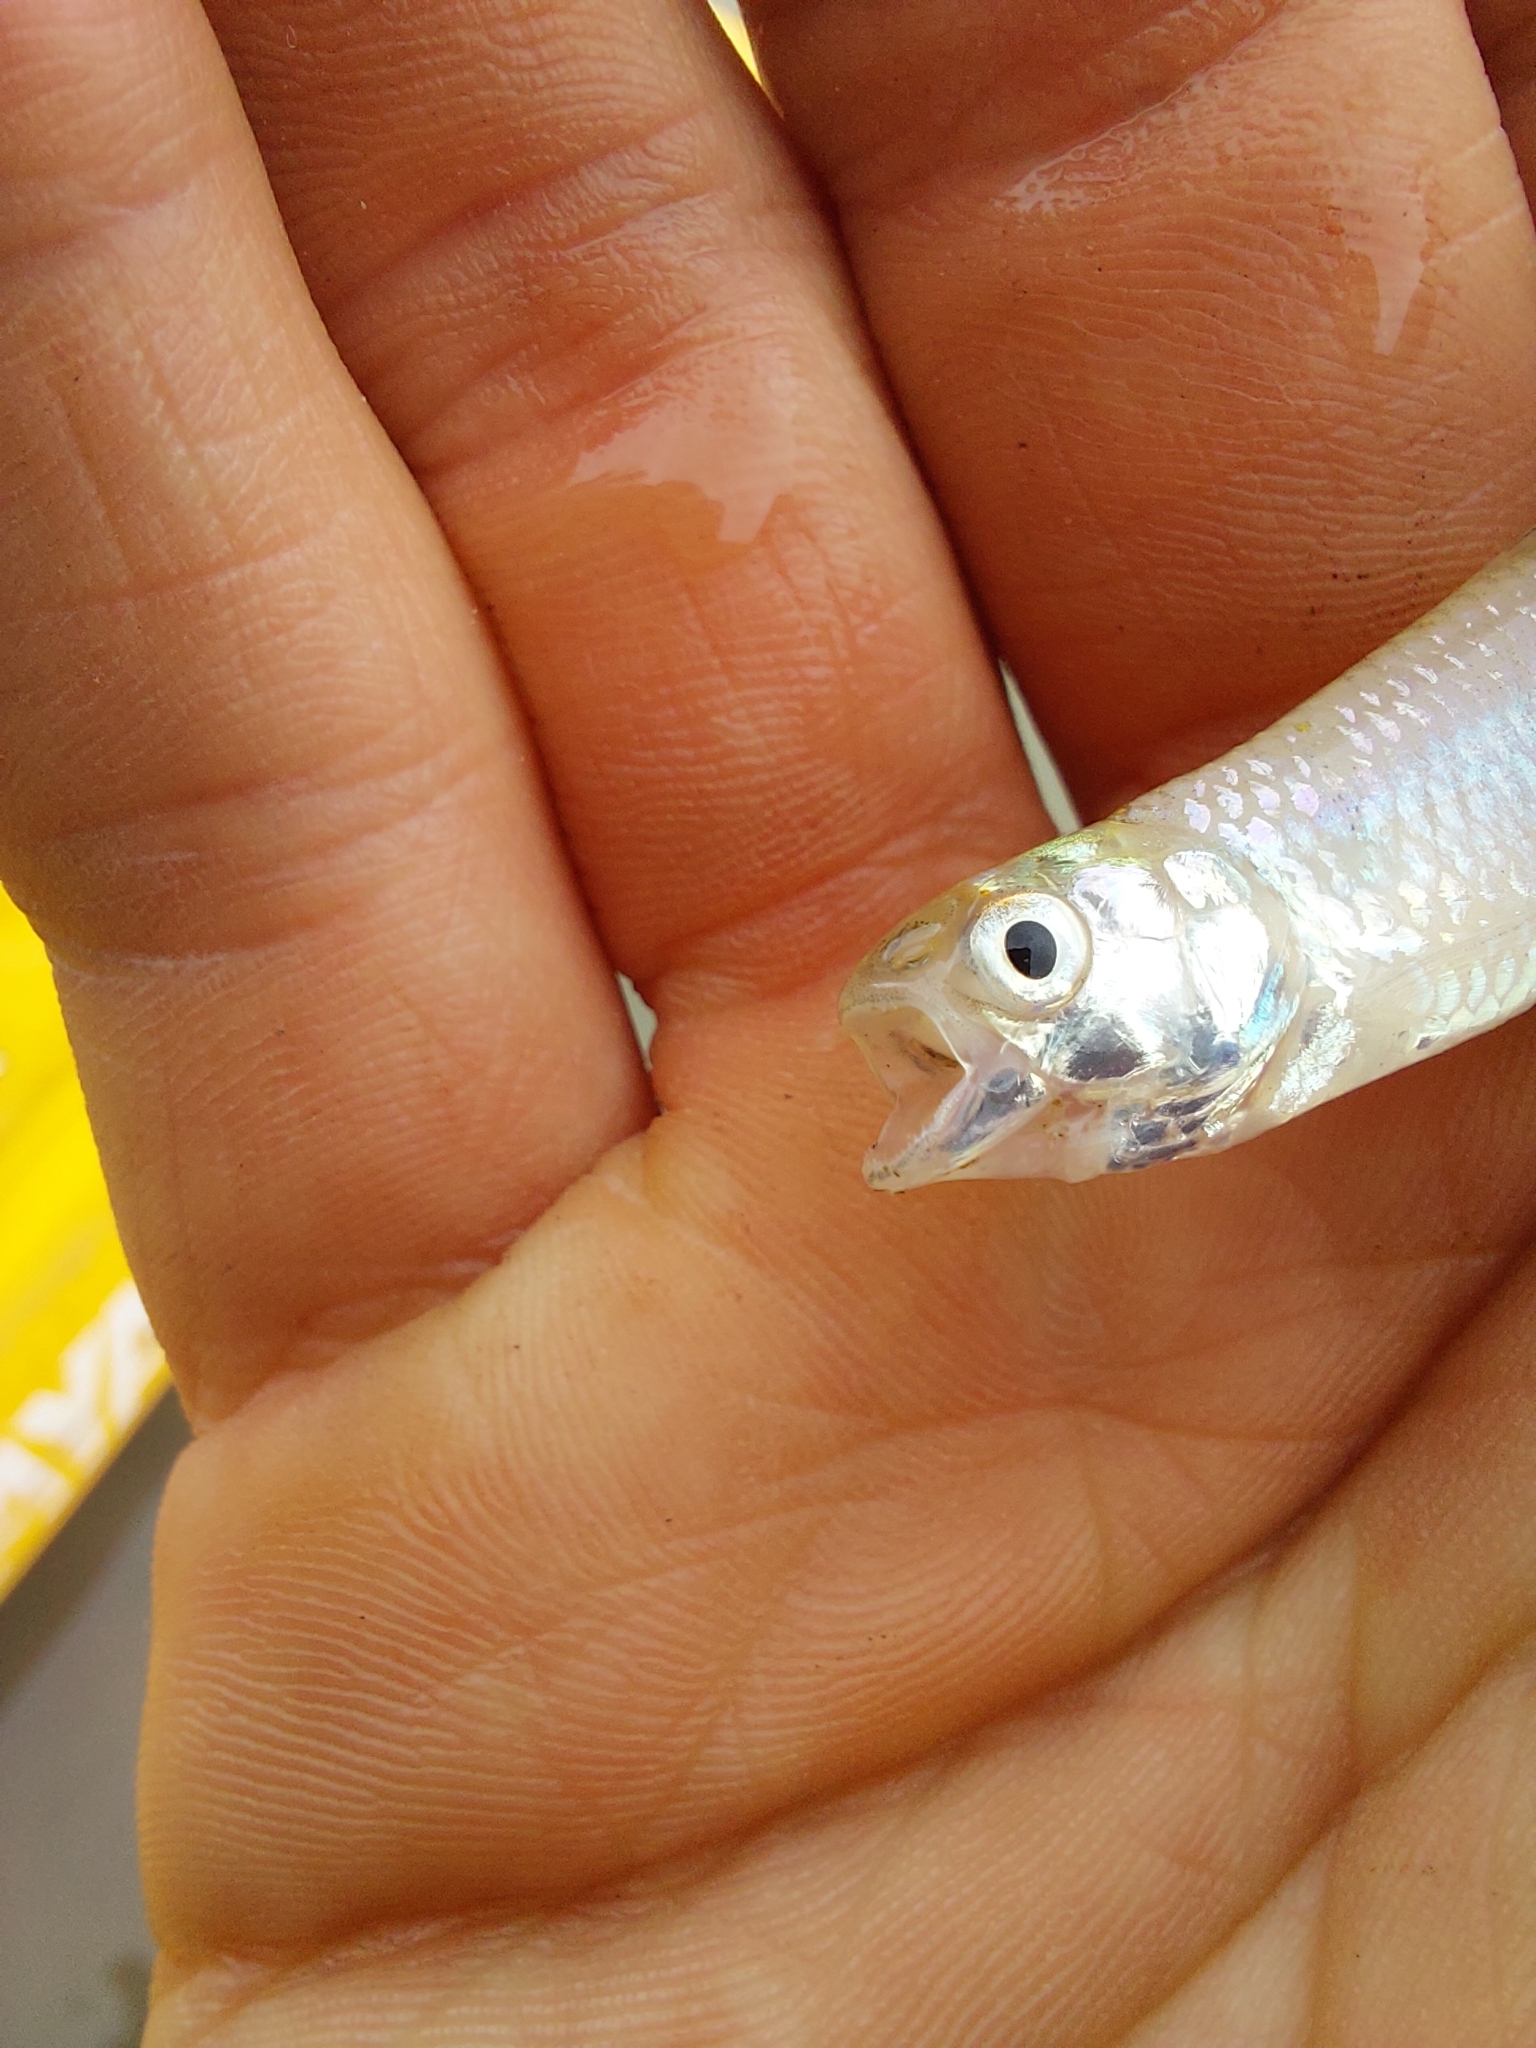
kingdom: Animalia
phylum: Chordata
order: Characiformes
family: Characidae
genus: Aphyocharax
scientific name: Aphyocharax dentatus
